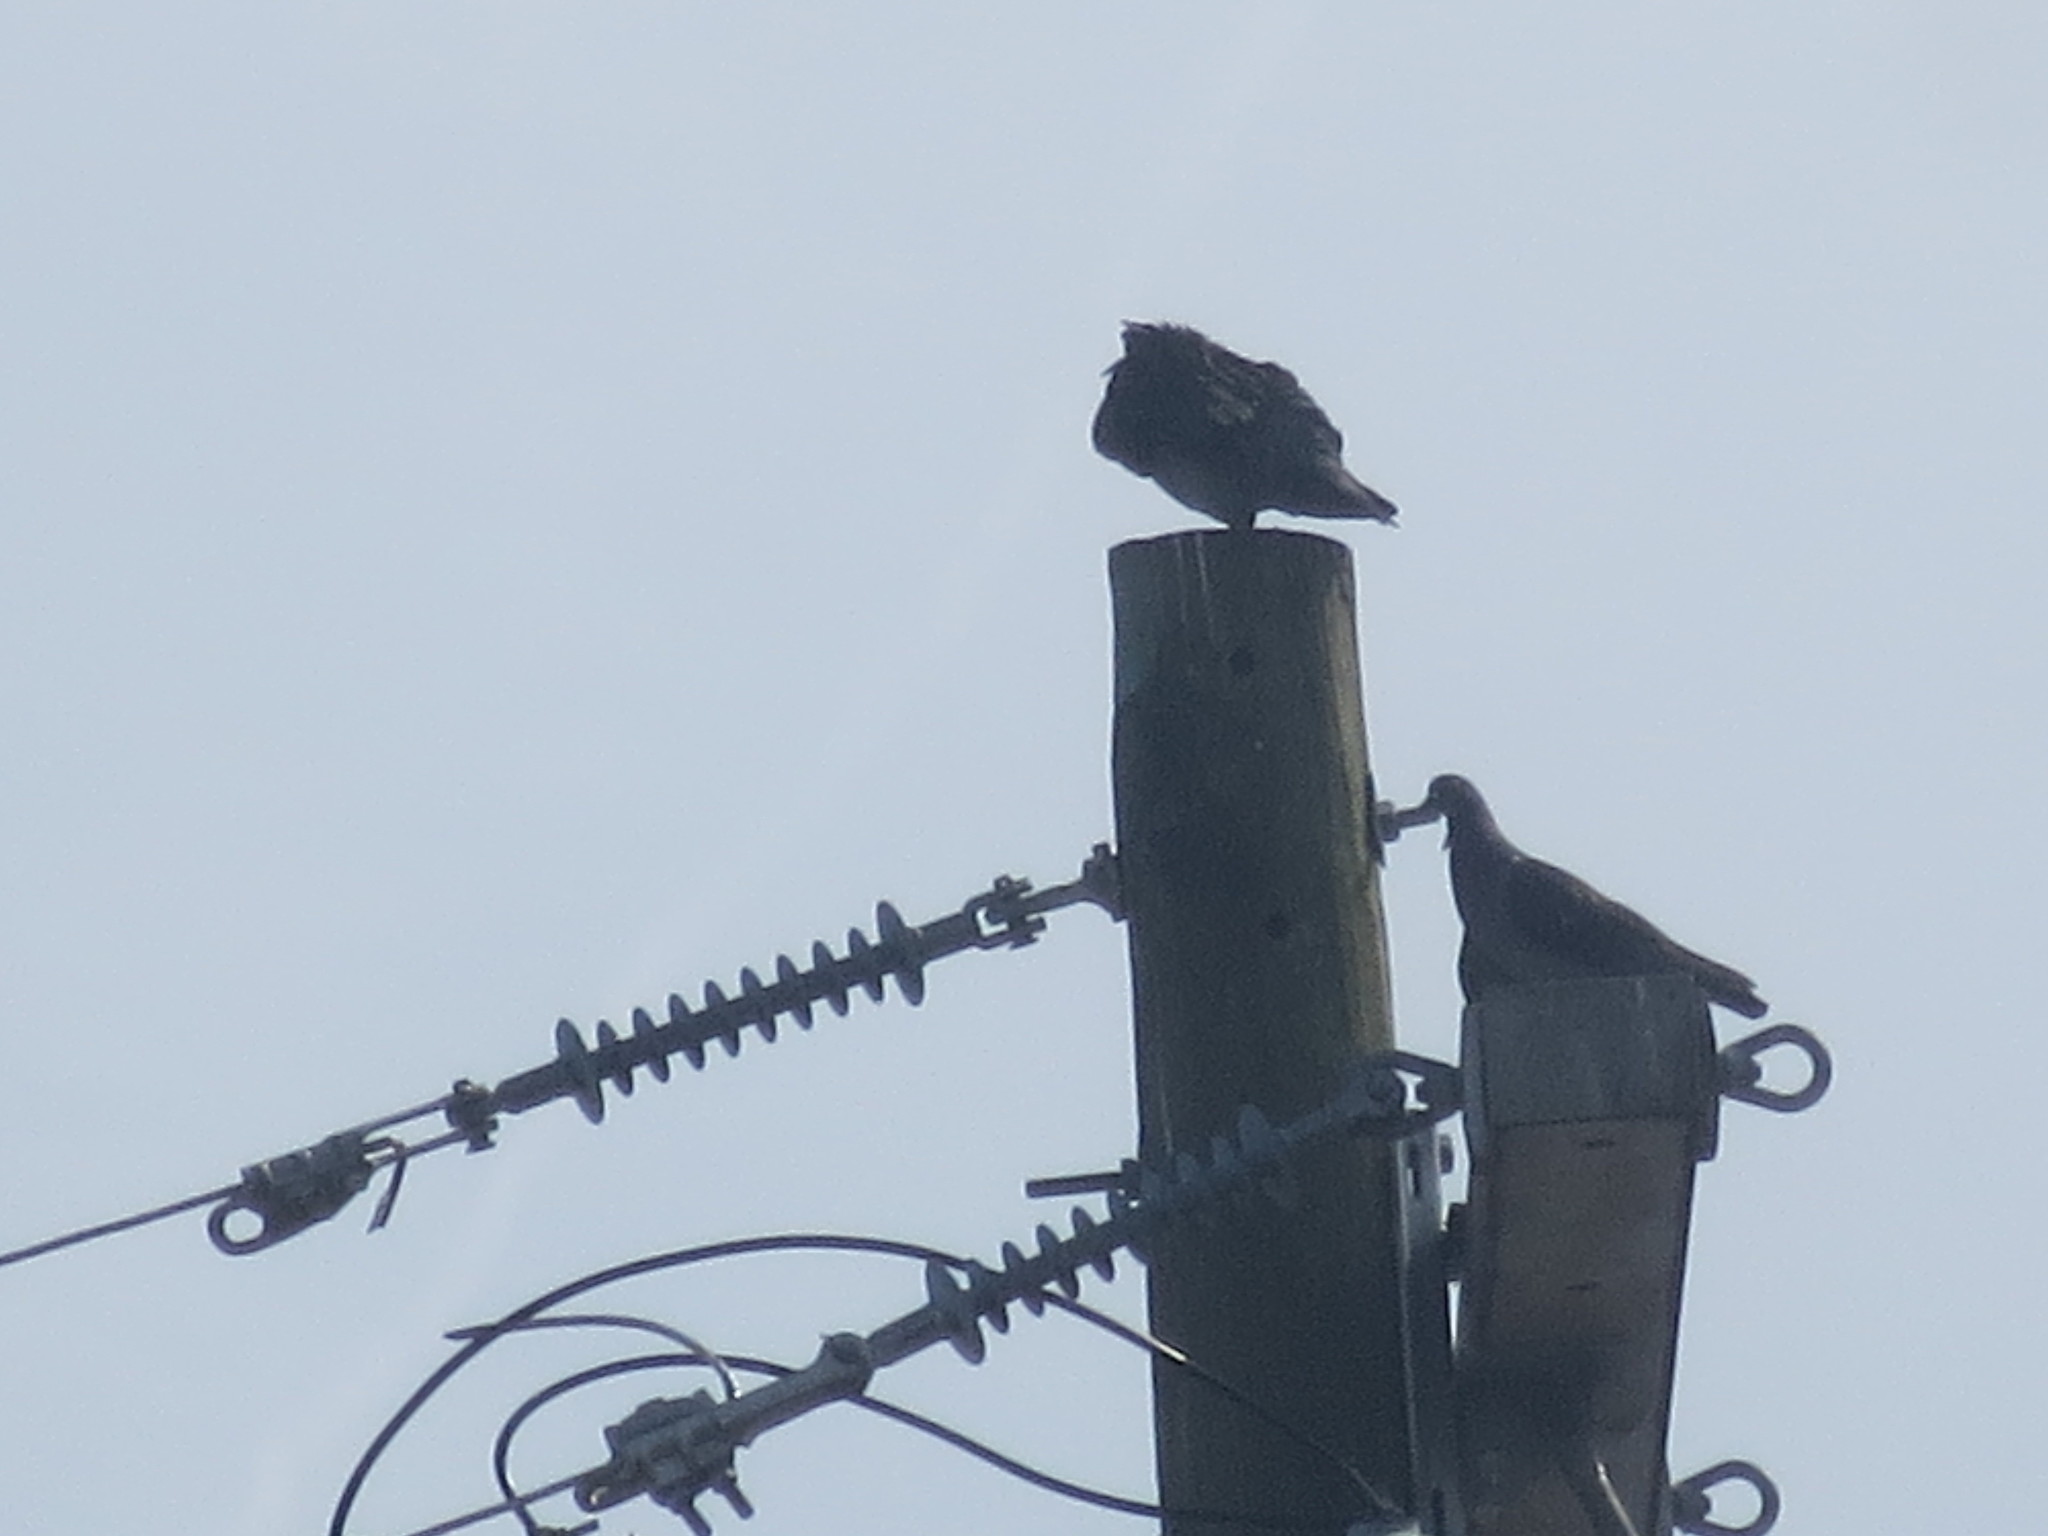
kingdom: Animalia
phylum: Chordata
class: Aves
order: Columbiformes
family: Columbidae
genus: Columba
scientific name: Columba livia
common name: Rock pigeon
